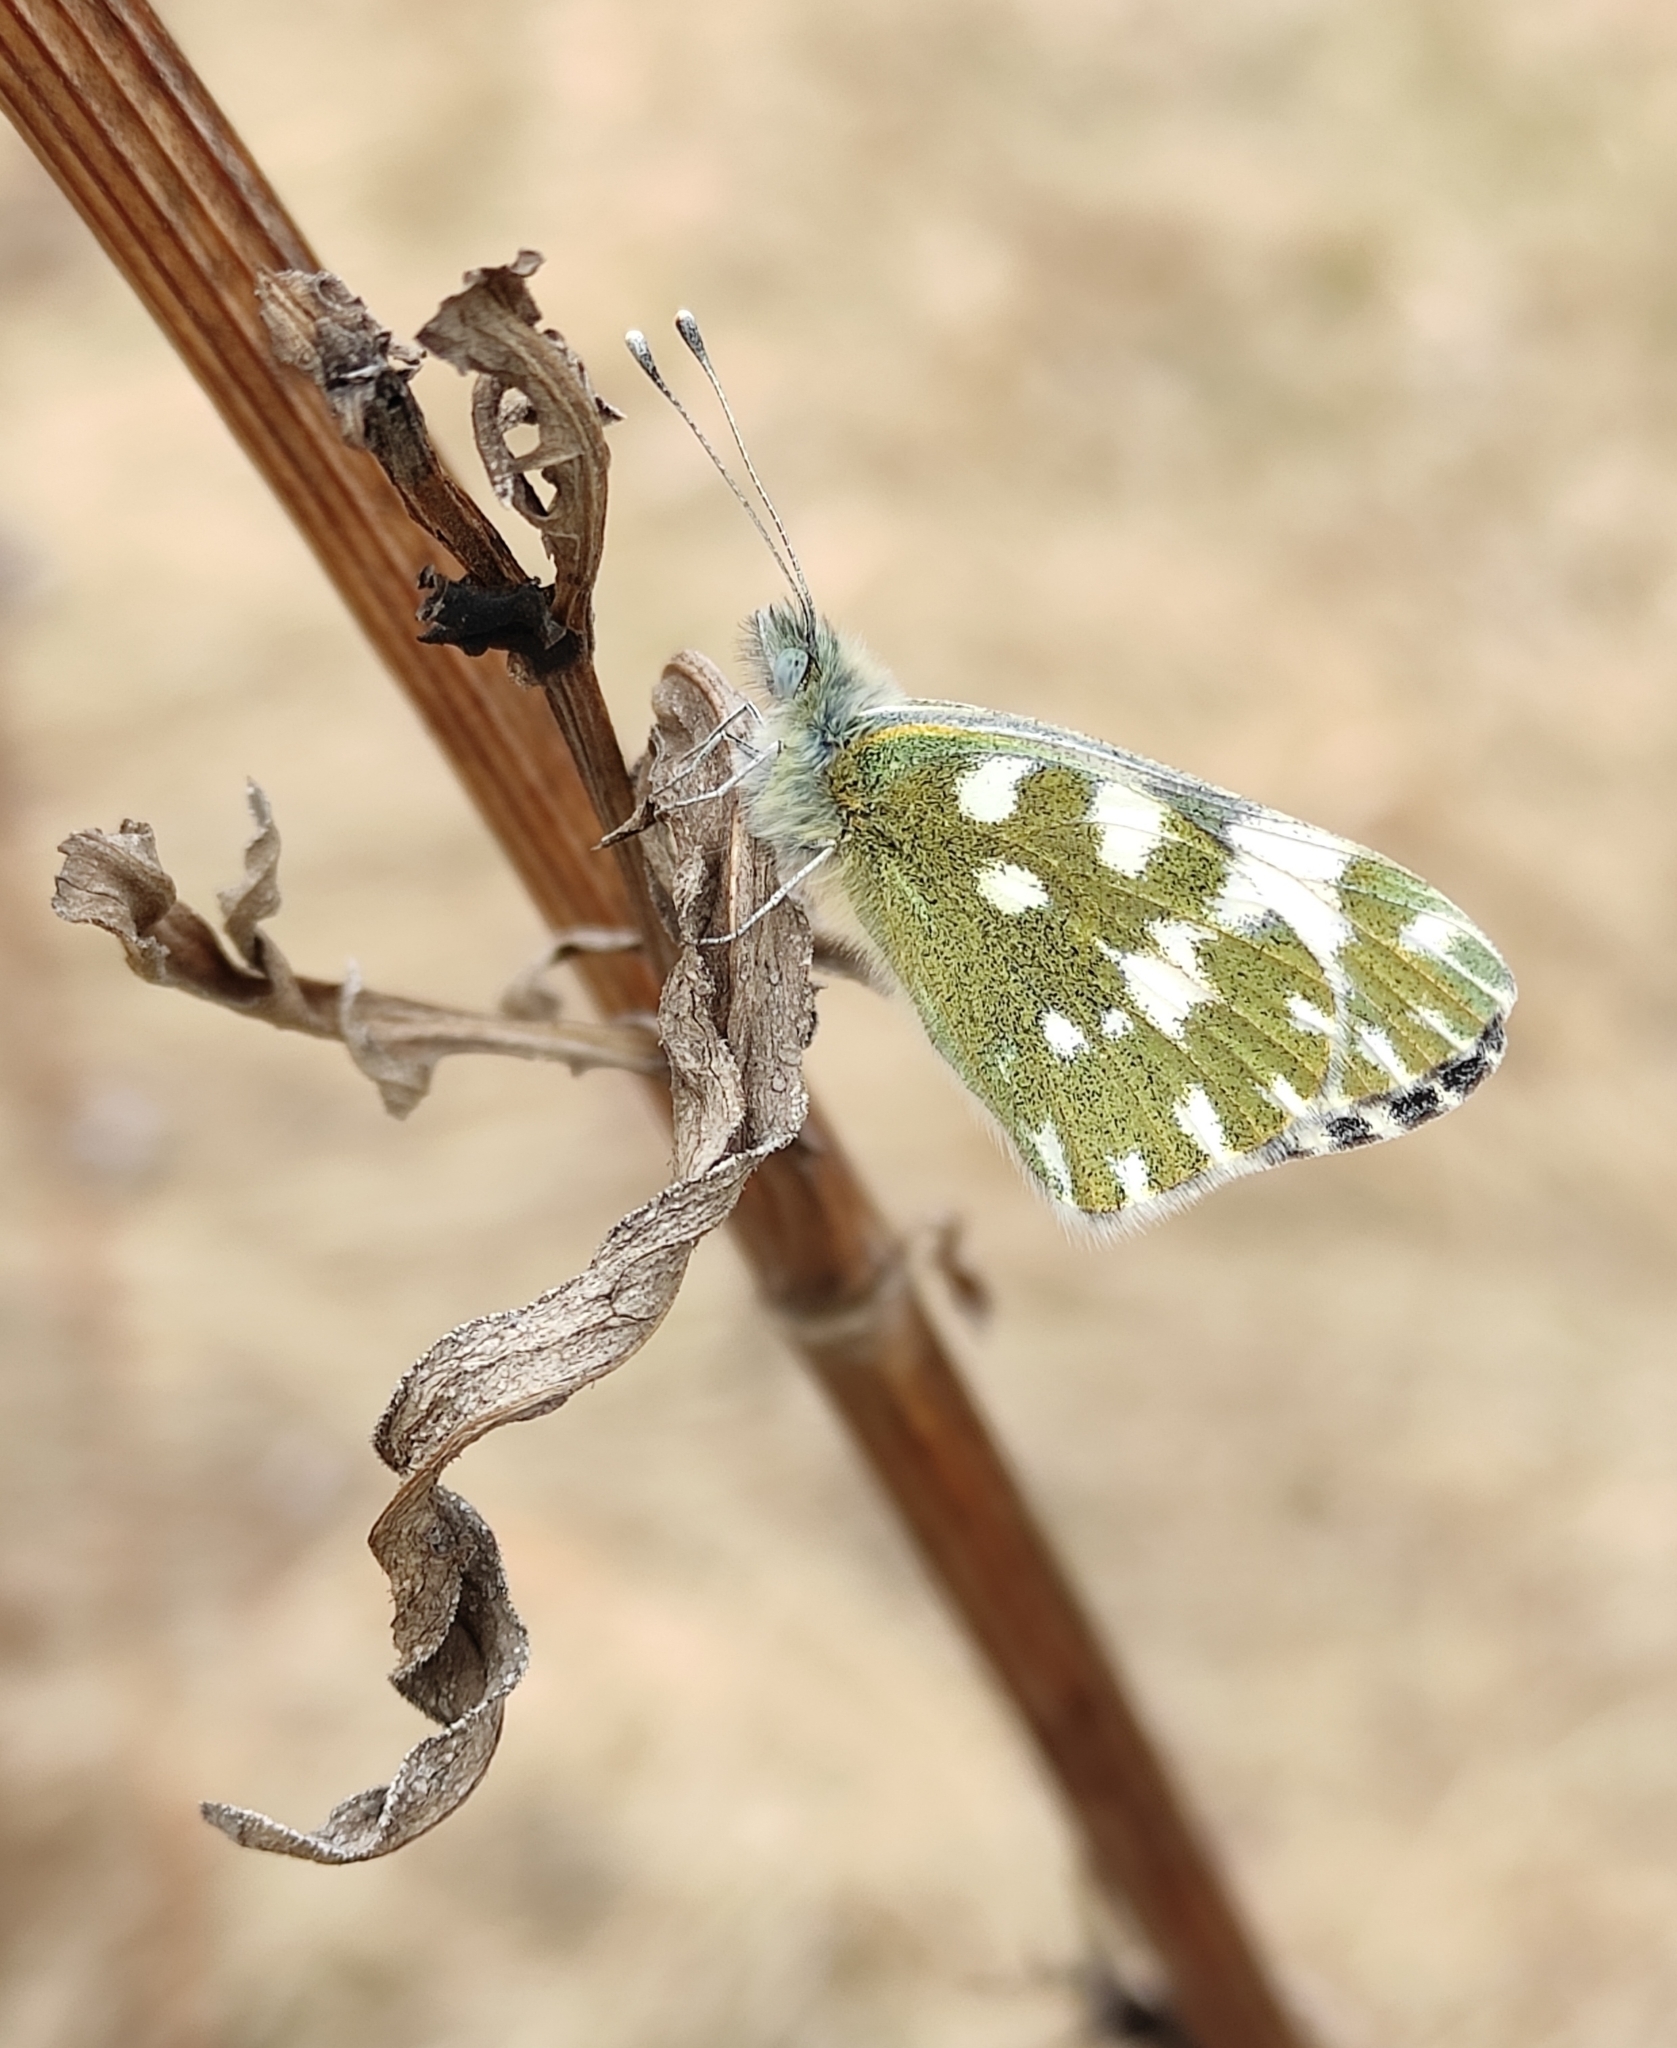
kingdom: Animalia
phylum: Arthropoda
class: Insecta
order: Lepidoptera
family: Pieridae
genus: Pontia
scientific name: Pontia edusa
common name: Eastern bath white
